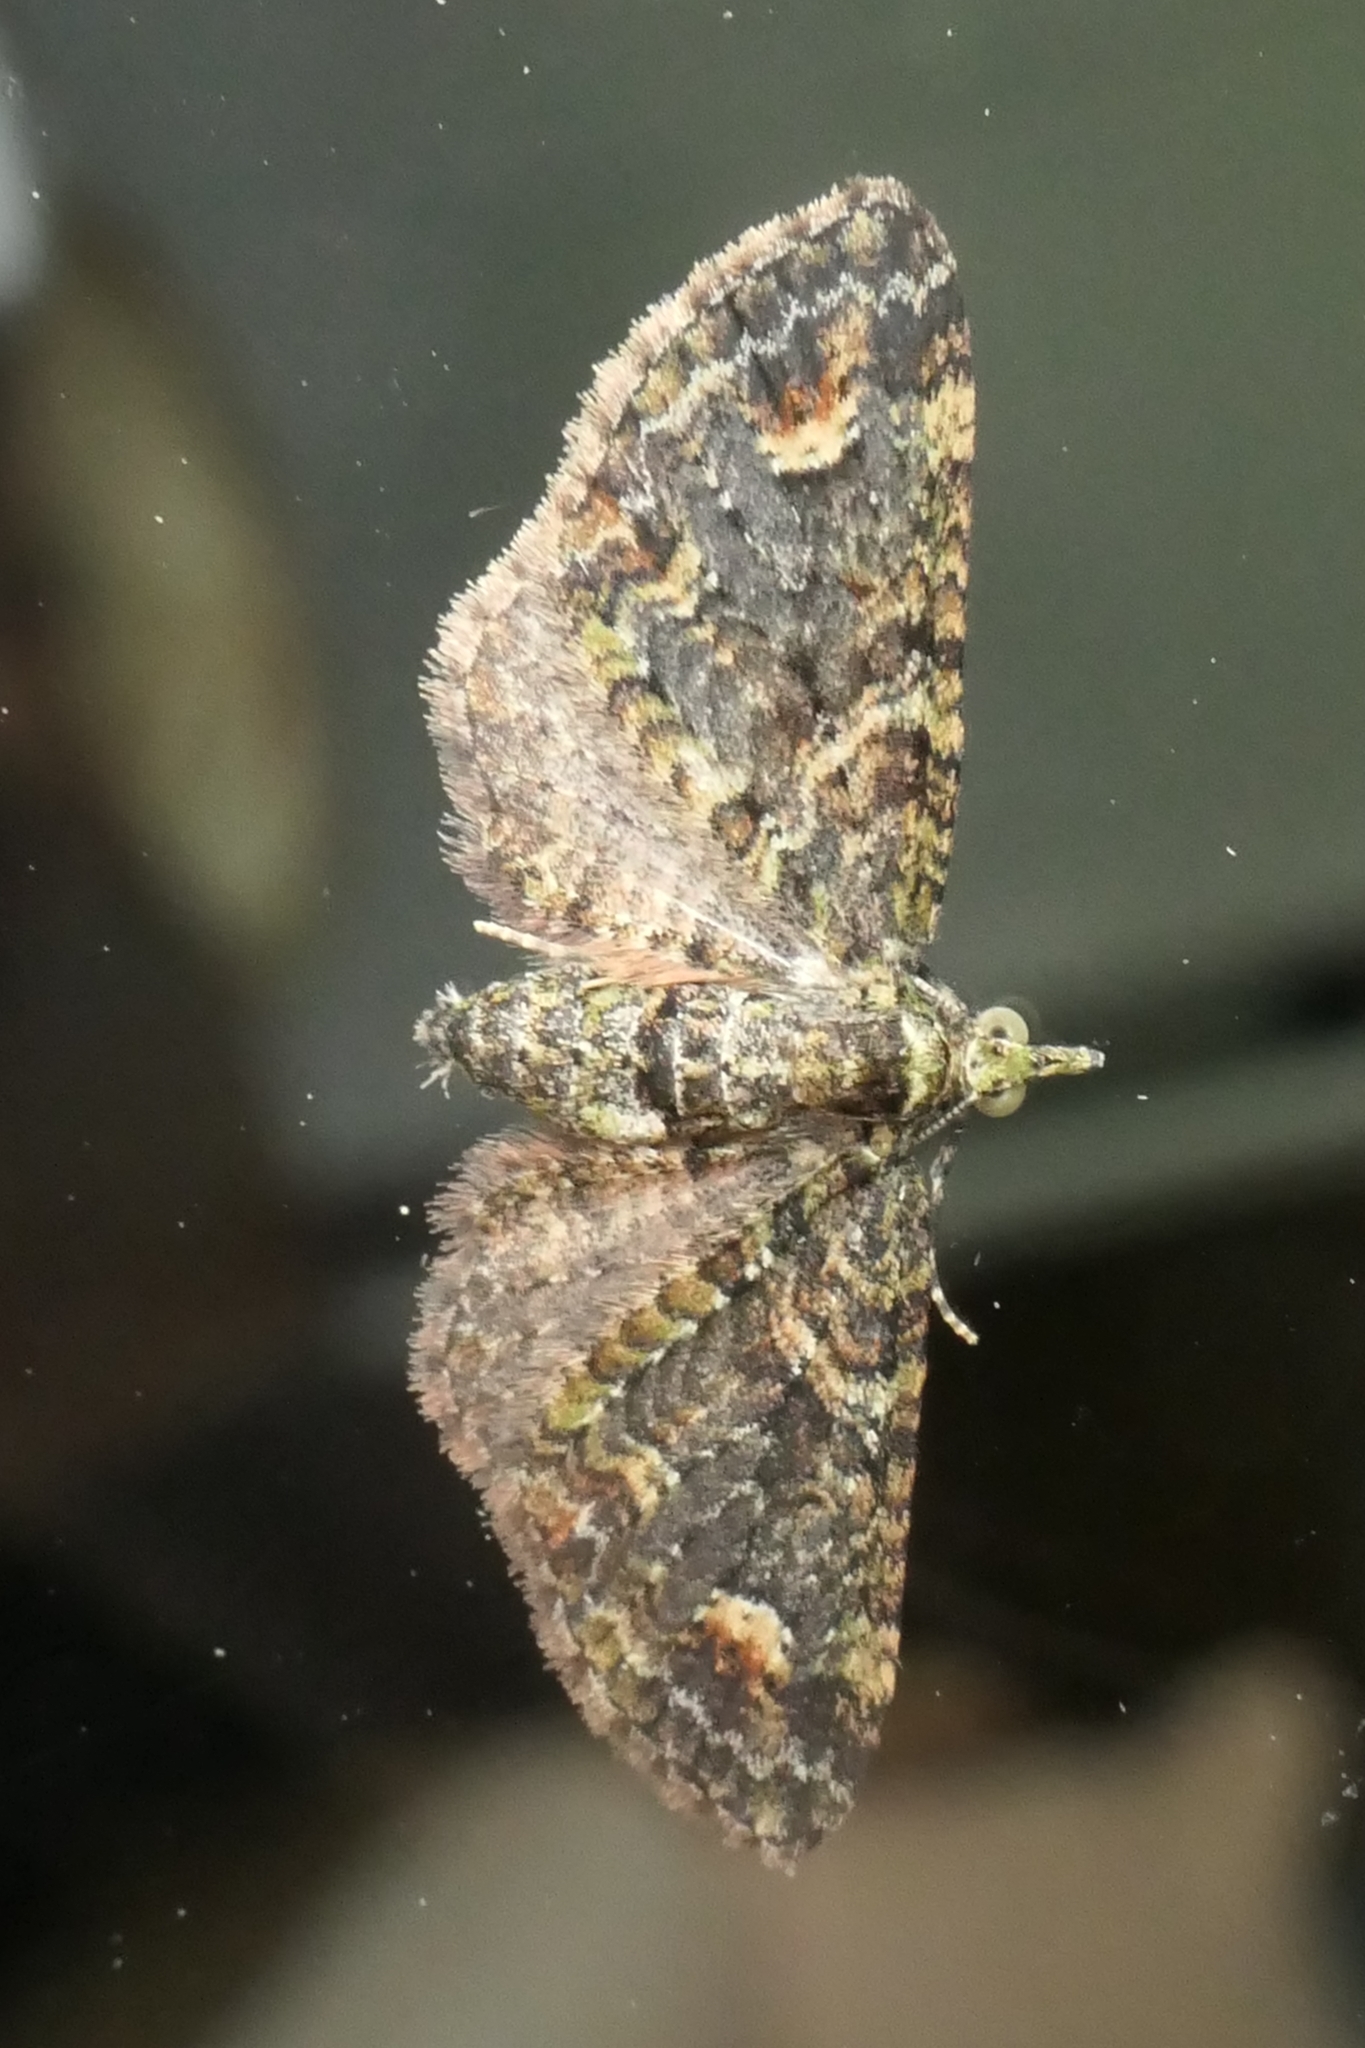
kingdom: Animalia
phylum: Arthropoda
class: Insecta
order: Lepidoptera
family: Geometridae
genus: Idaea
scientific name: Idaea mutanda
